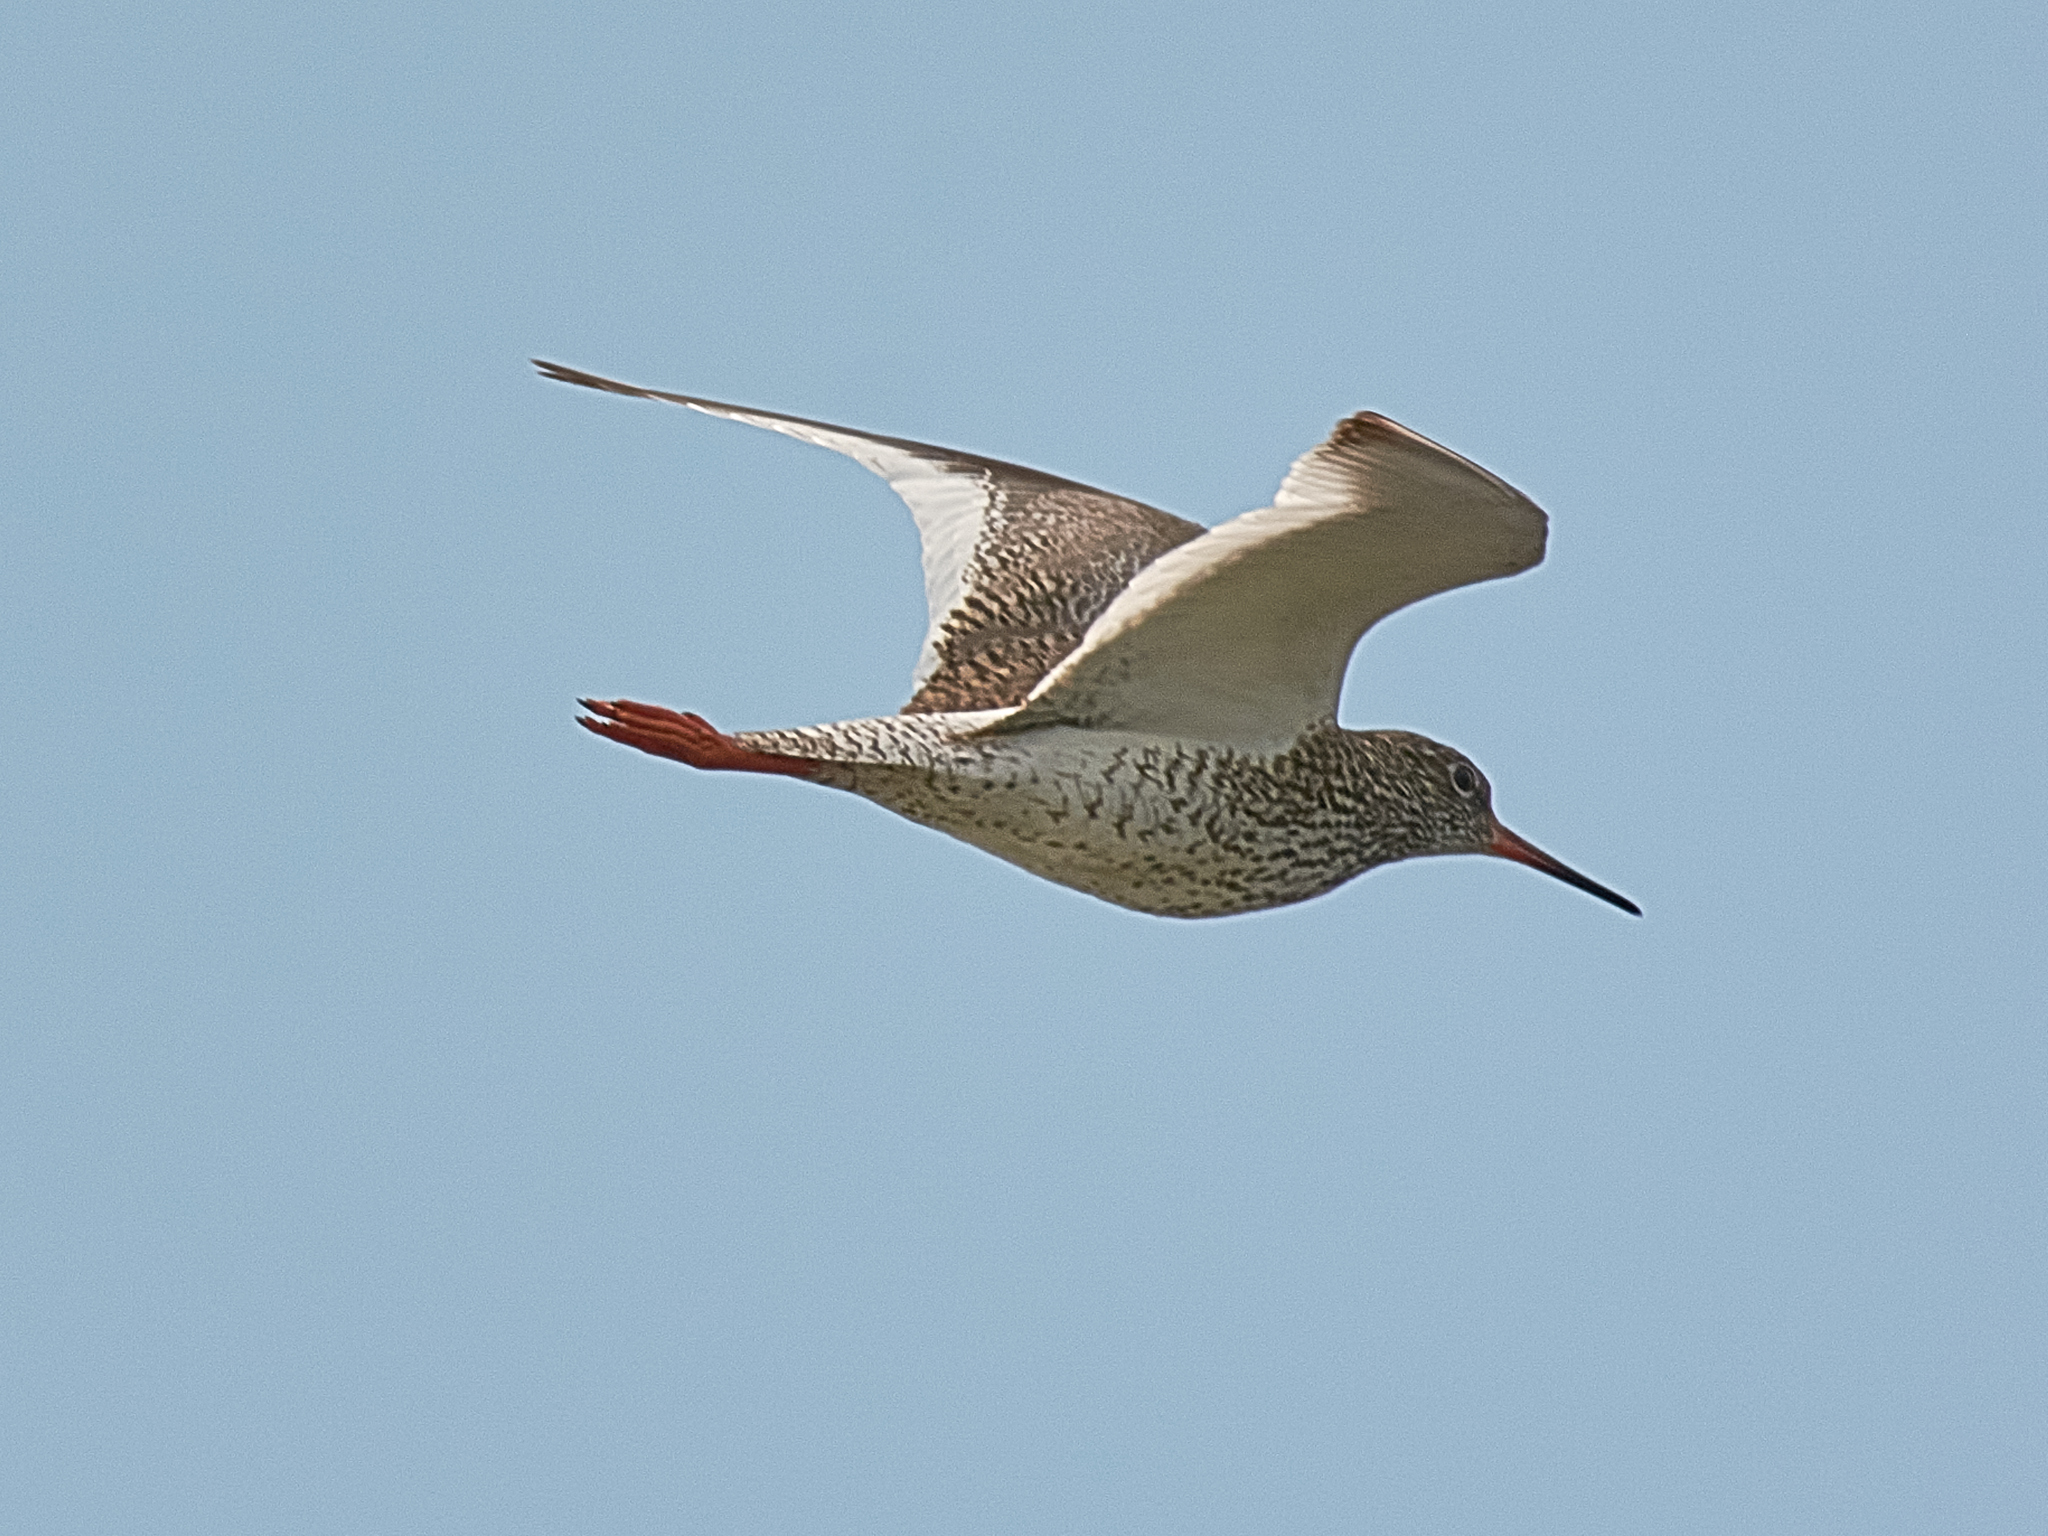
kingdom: Animalia
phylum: Chordata
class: Aves
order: Charadriiformes
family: Scolopacidae
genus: Tringa
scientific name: Tringa totanus
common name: Common redshank
